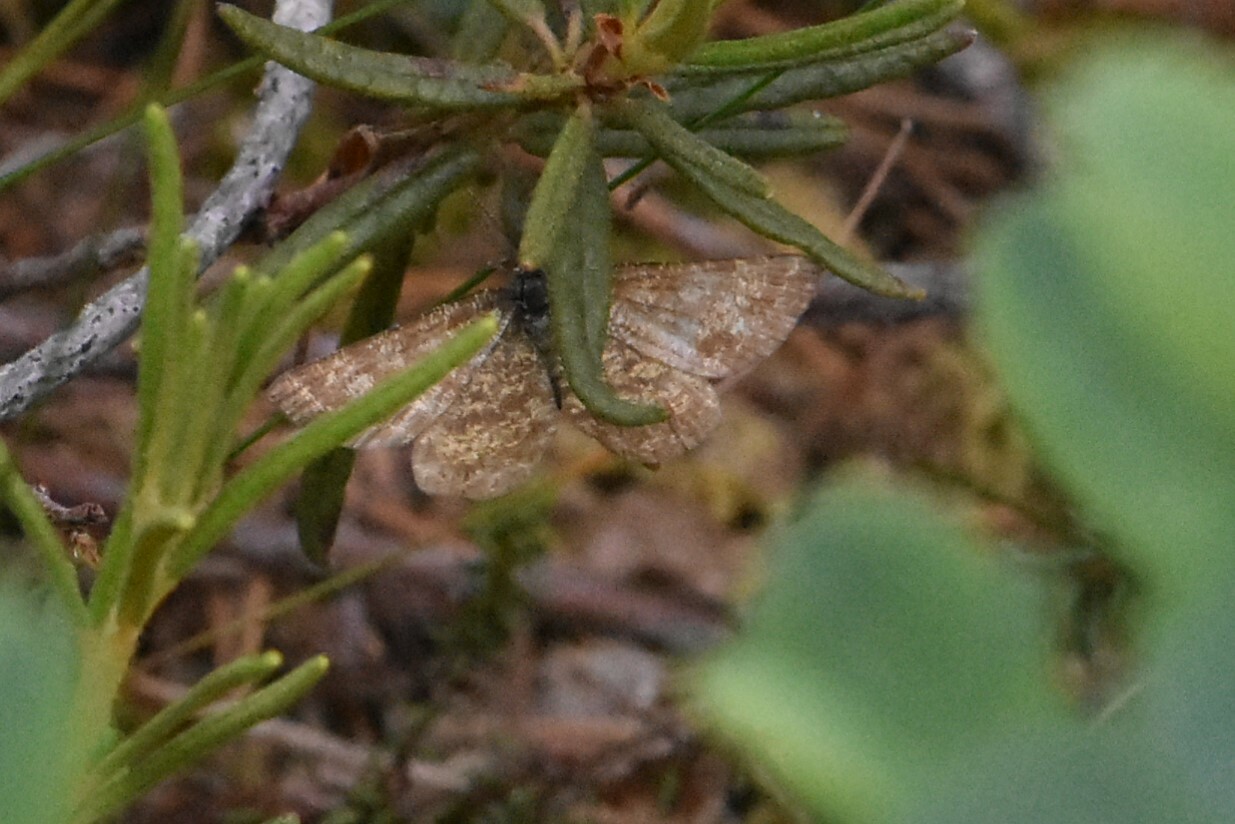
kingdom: Animalia
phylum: Arthropoda
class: Insecta
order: Lepidoptera
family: Geometridae
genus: Ematurga
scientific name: Ematurga atomaria
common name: Common heath
